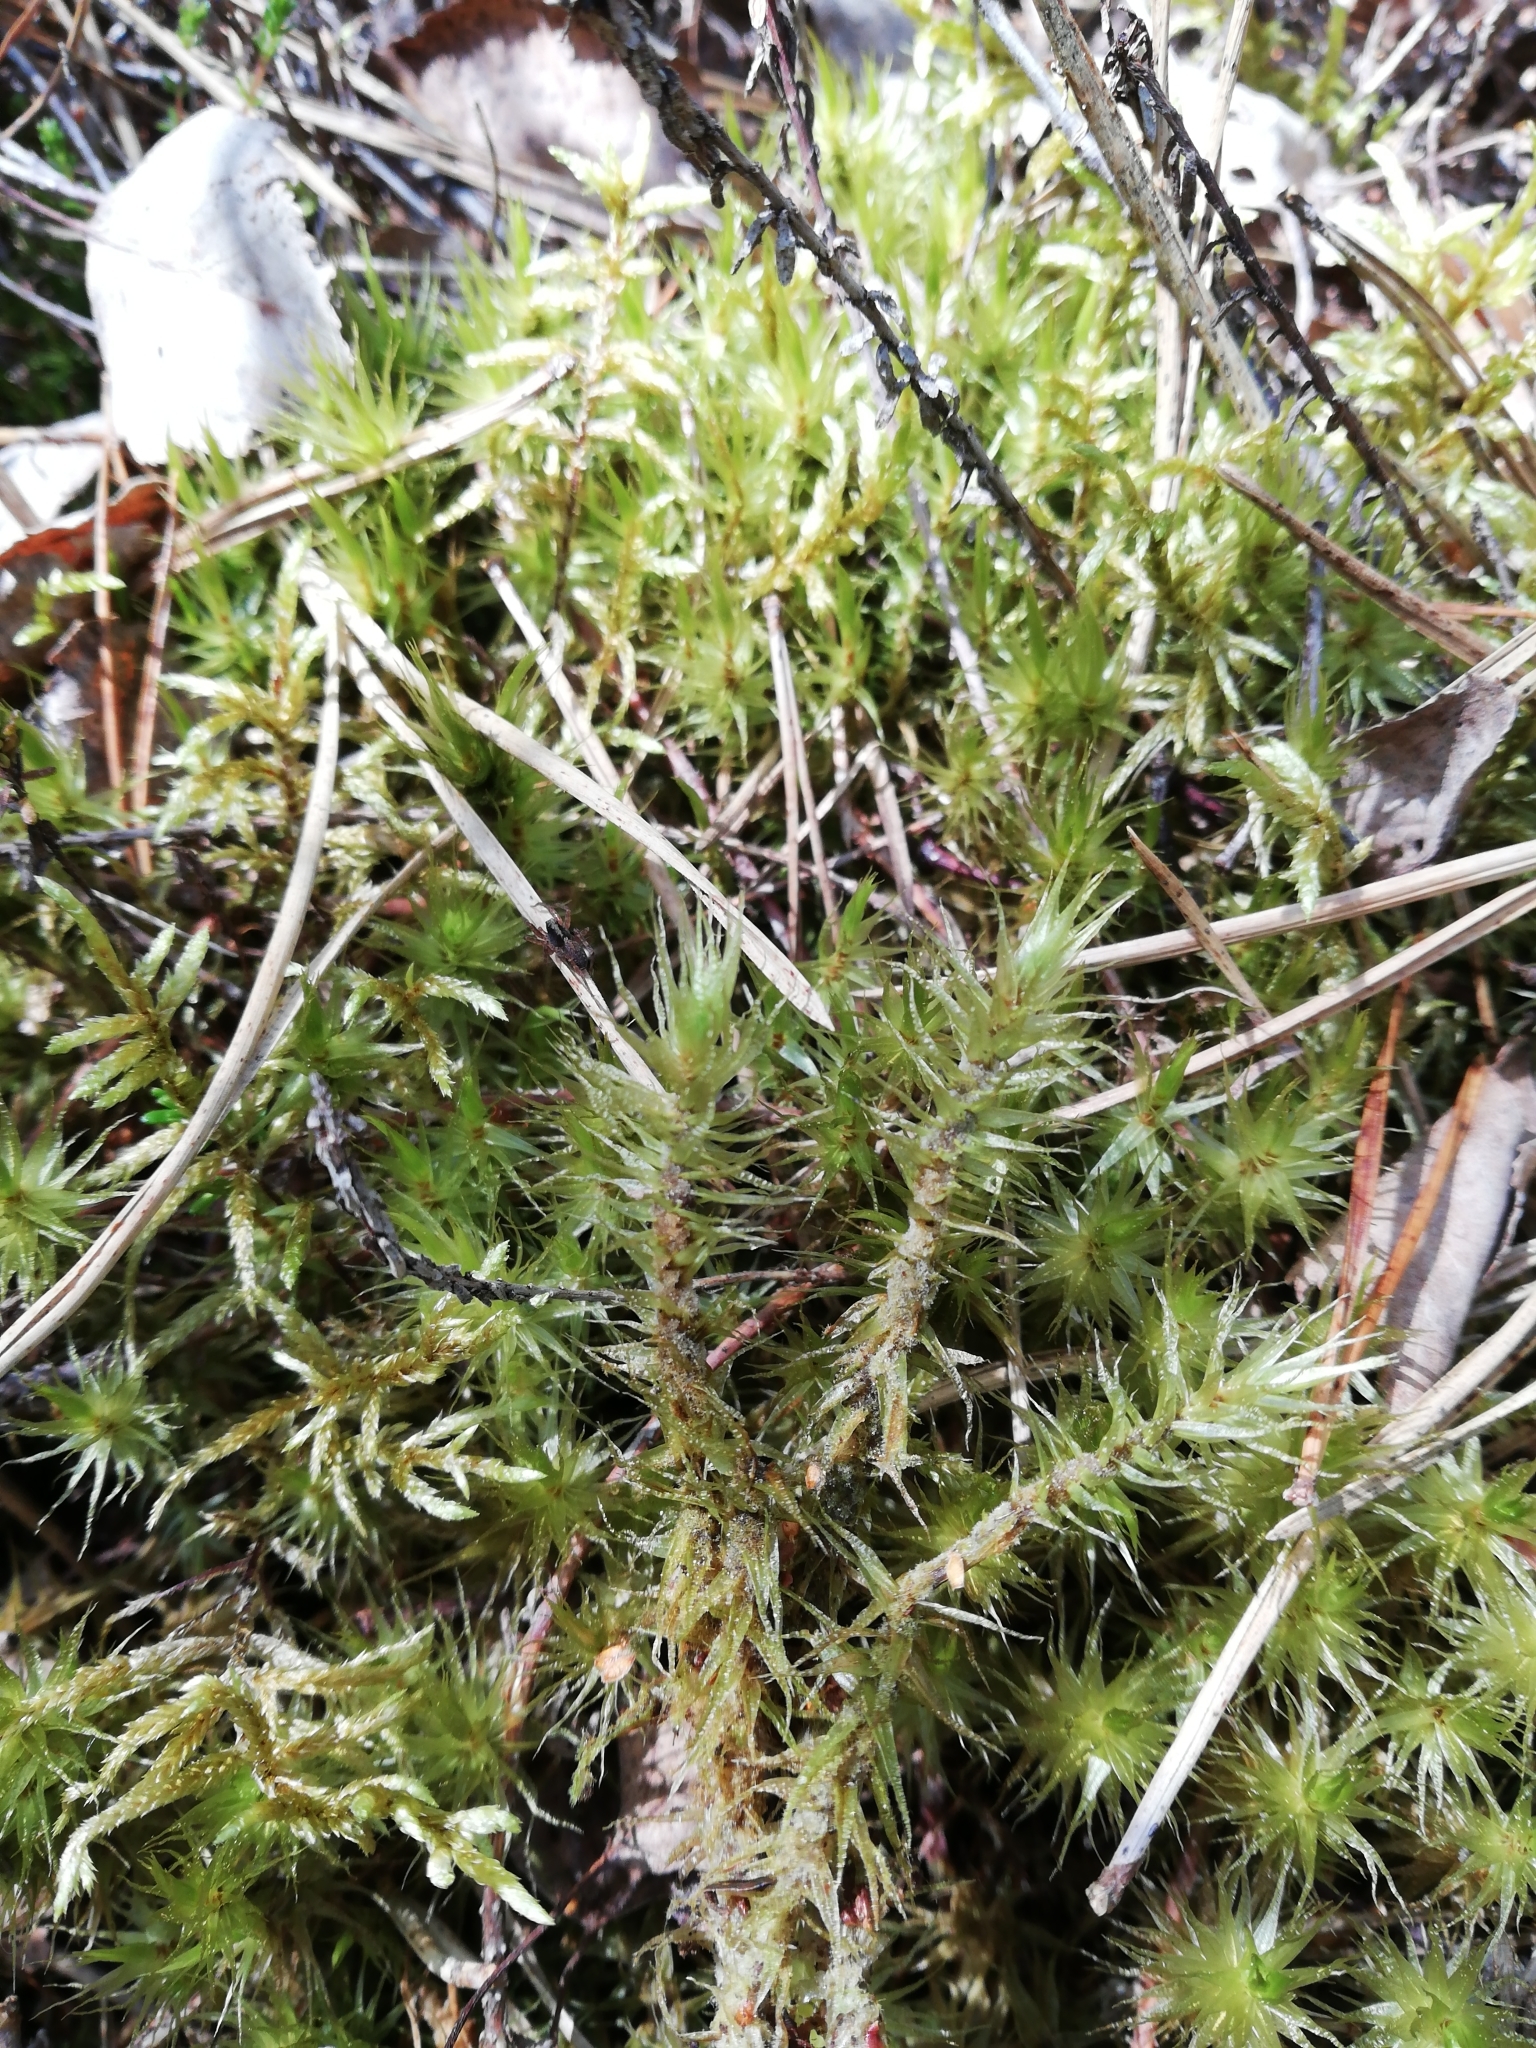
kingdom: Plantae
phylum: Bryophyta
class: Bryopsida
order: Dicranales
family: Dicranaceae
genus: Dicranum
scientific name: Dicranum polysetum
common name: Rugose fork-moss
